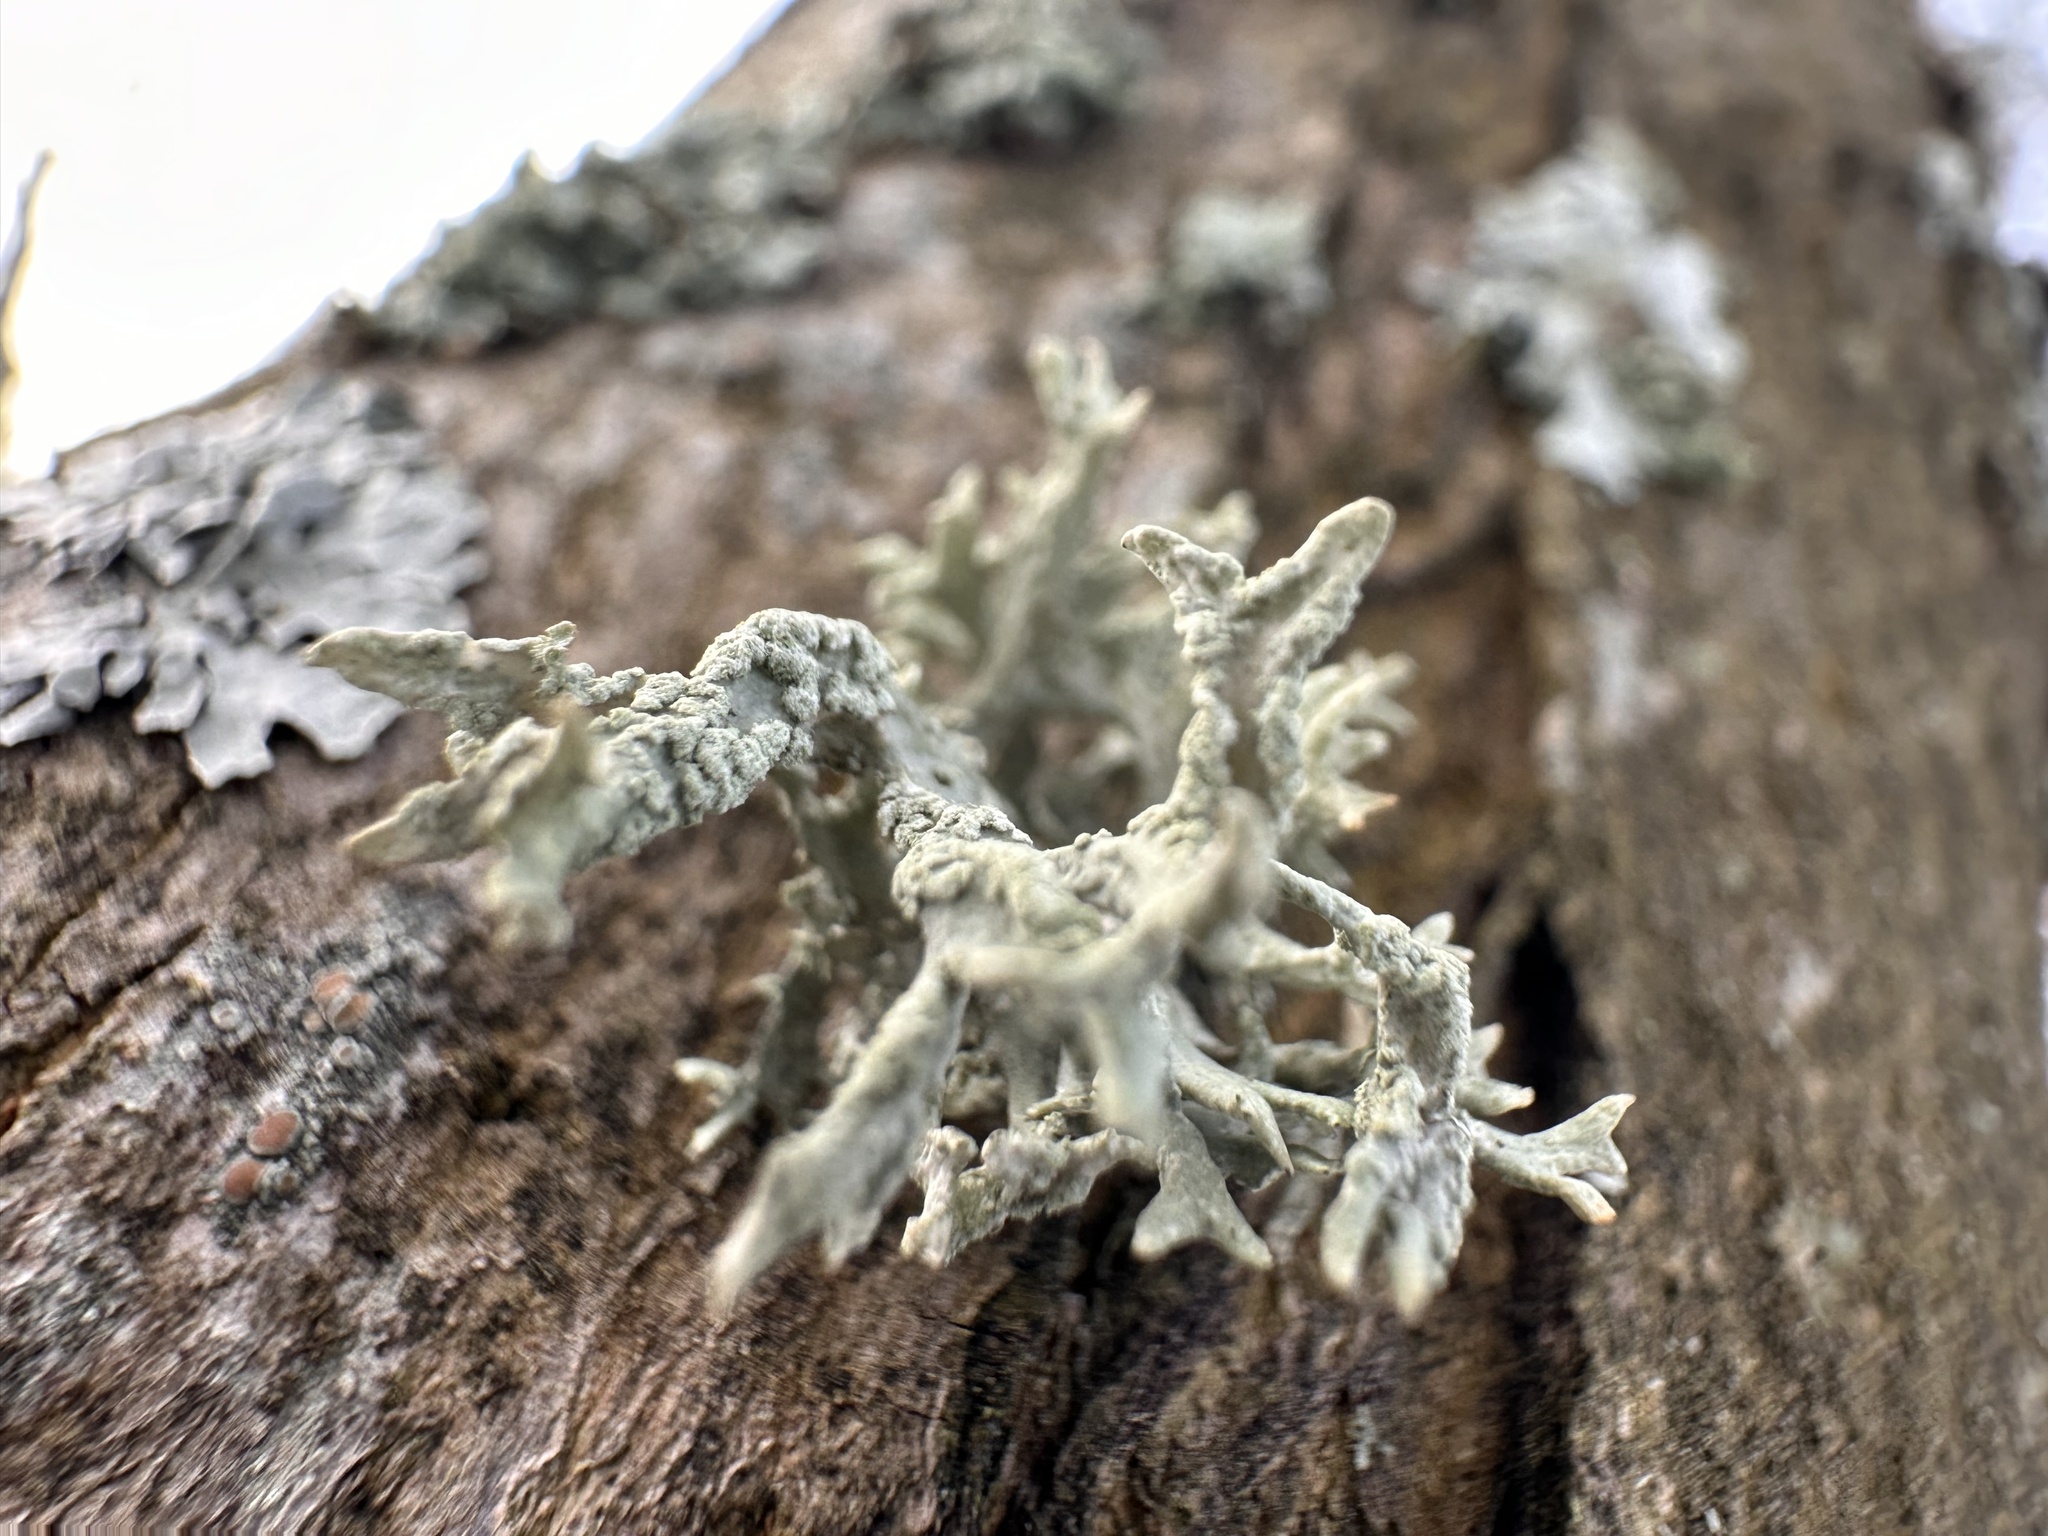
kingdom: Fungi
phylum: Ascomycota
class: Lecanoromycetes
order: Lecanorales
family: Parmeliaceae
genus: Evernia
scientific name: Evernia prunastri
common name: Oak moss
